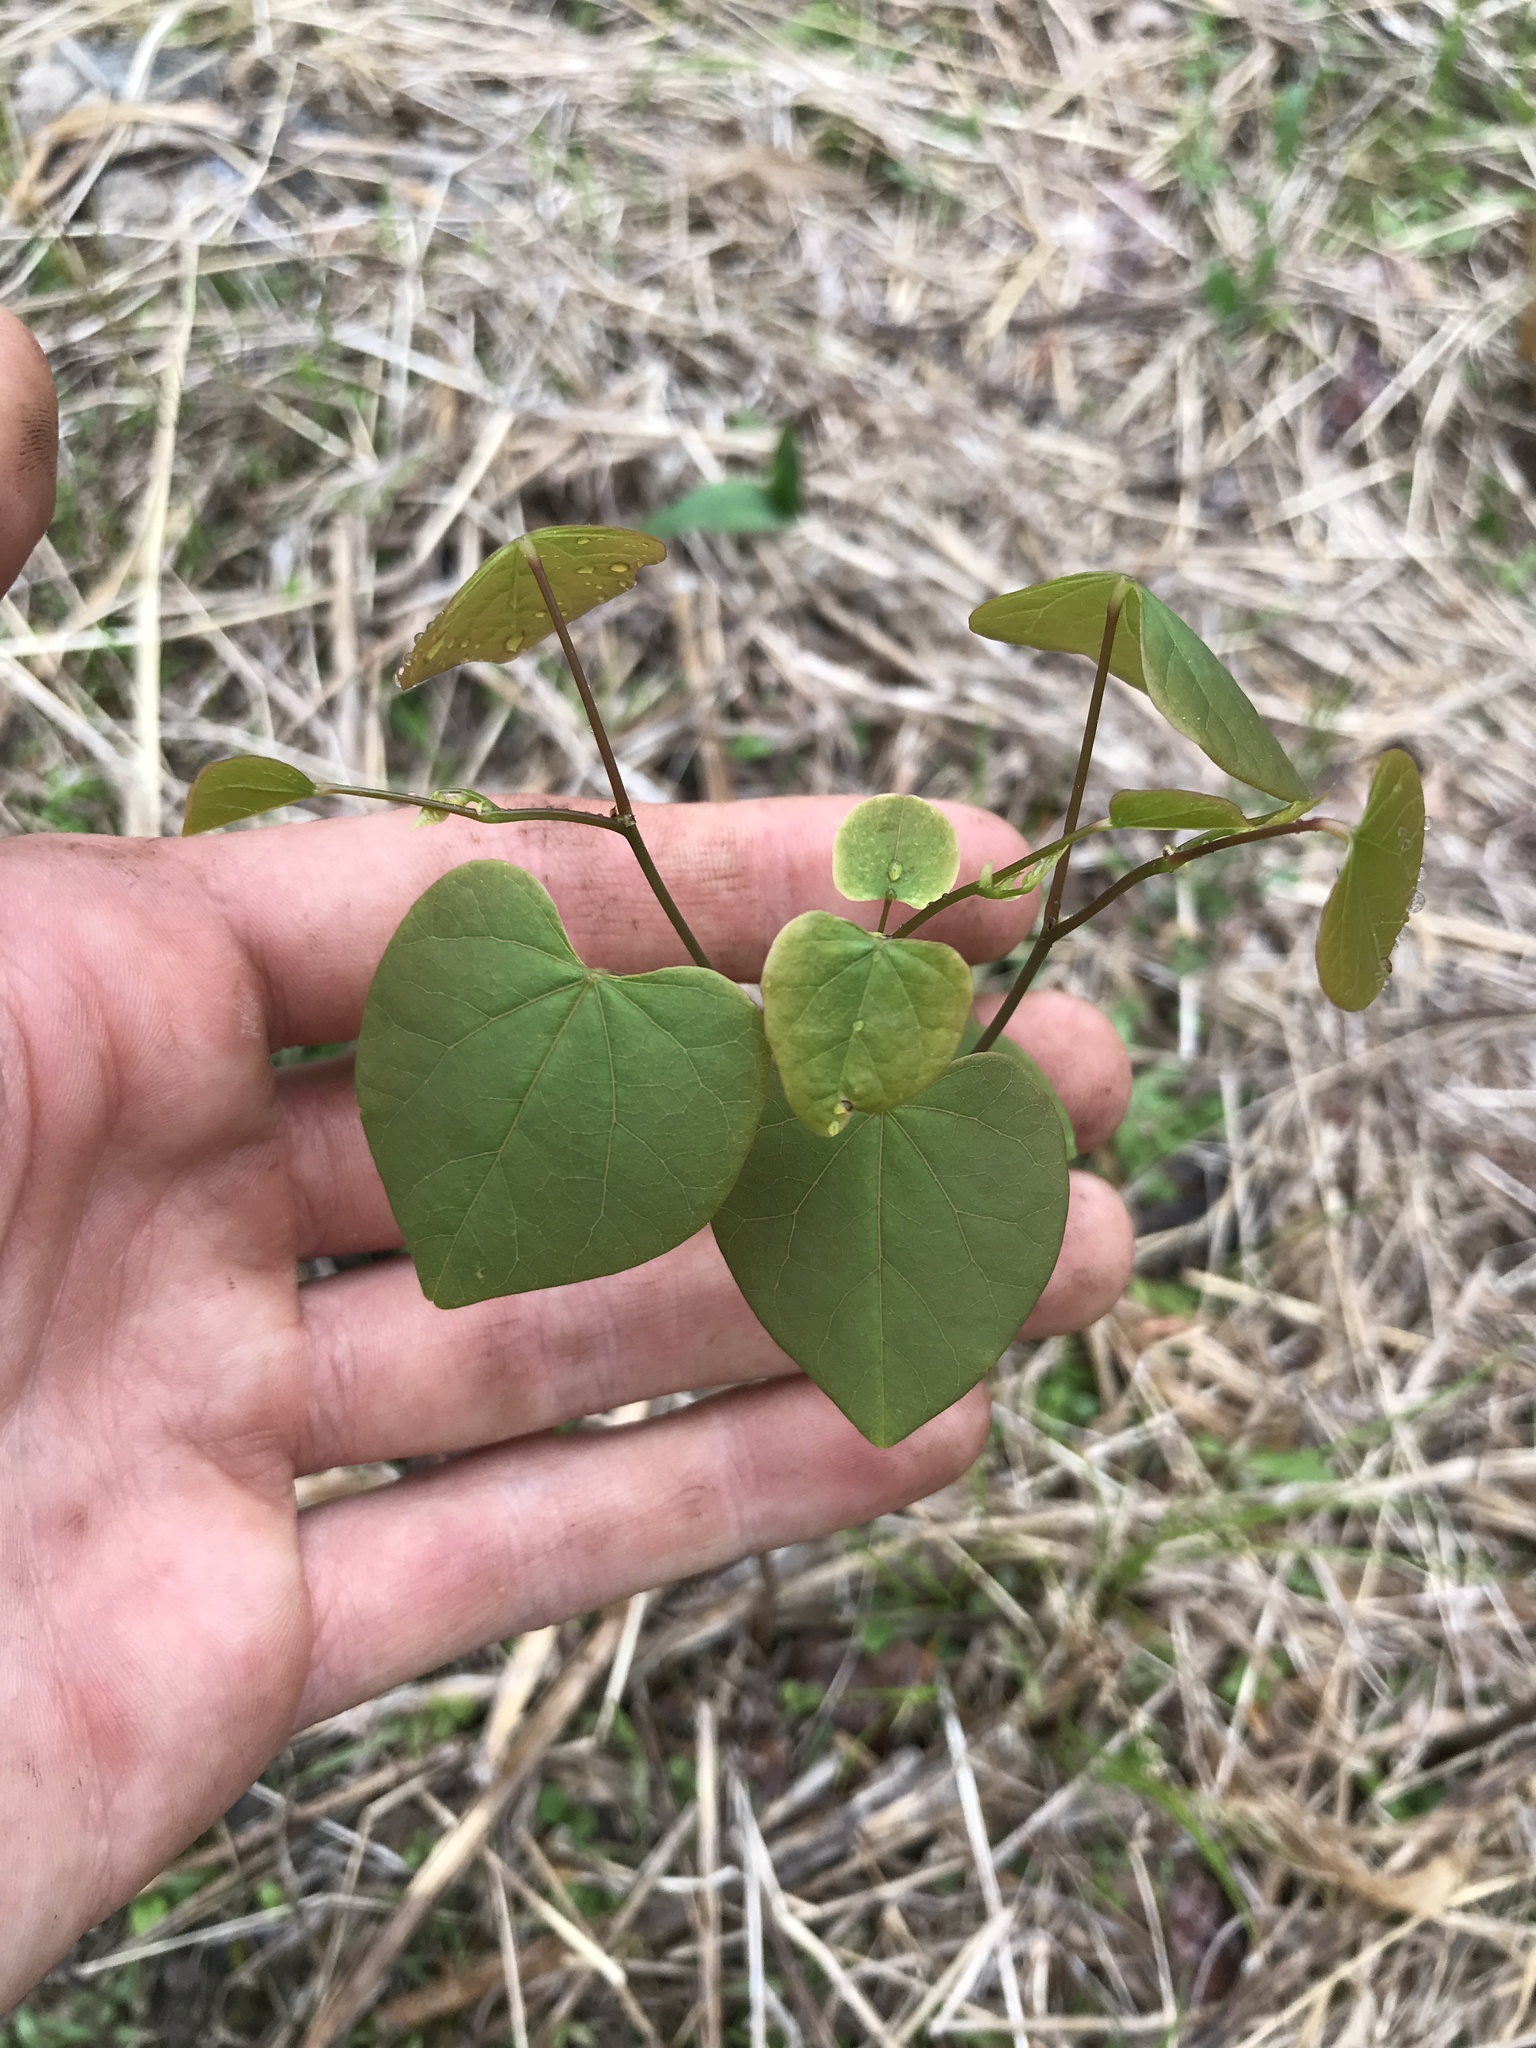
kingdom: Plantae
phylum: Tracheophyta
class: Magnoliopsida
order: Fabales
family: Fabaceae
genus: Cercis
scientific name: Cercis canadensis
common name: Eastern redbud
